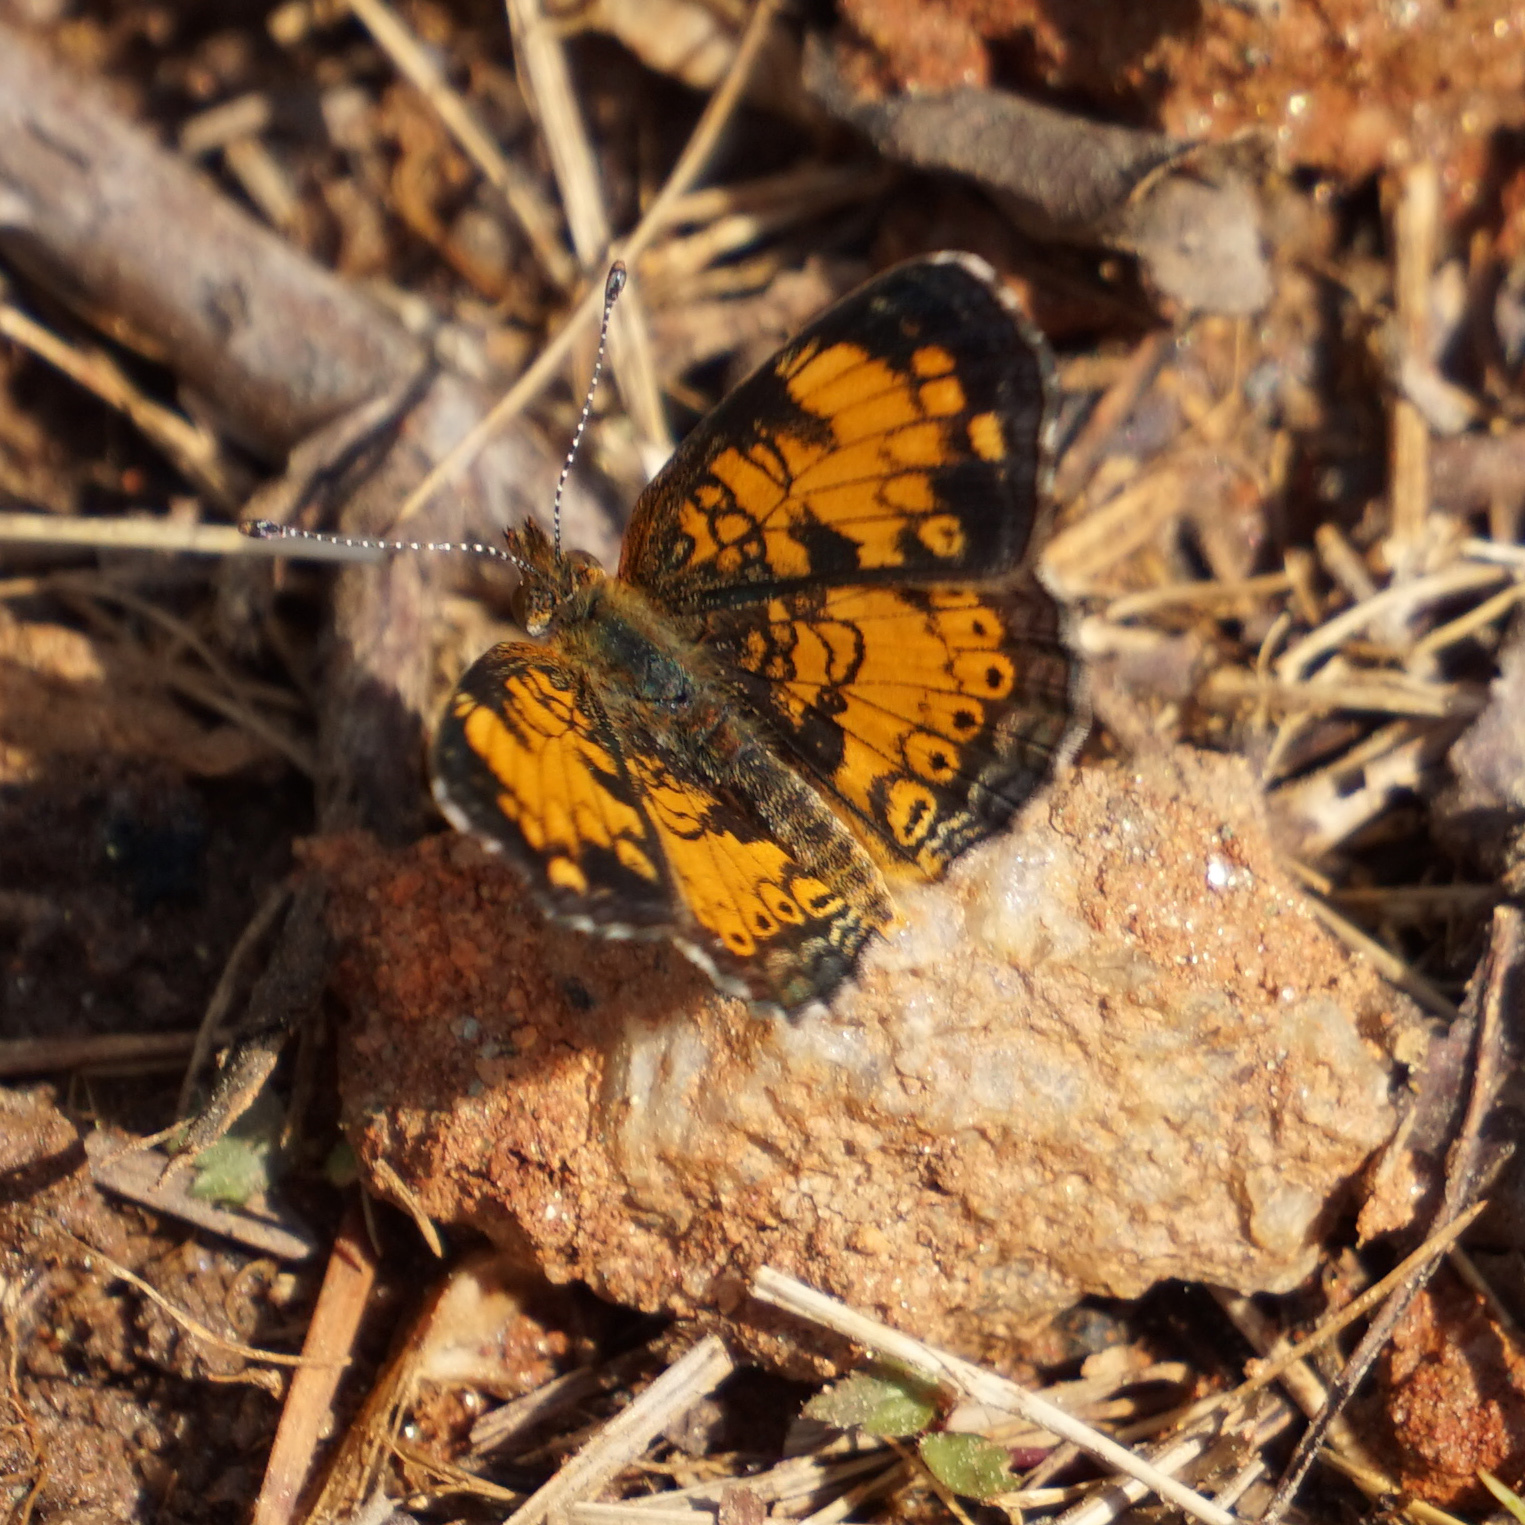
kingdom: Animalia
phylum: Arthropoda
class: Insecta
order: Lepidoptera
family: Nymphalidae
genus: Phyciodes
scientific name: Phyciodes tharos
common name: Pearl crescent
